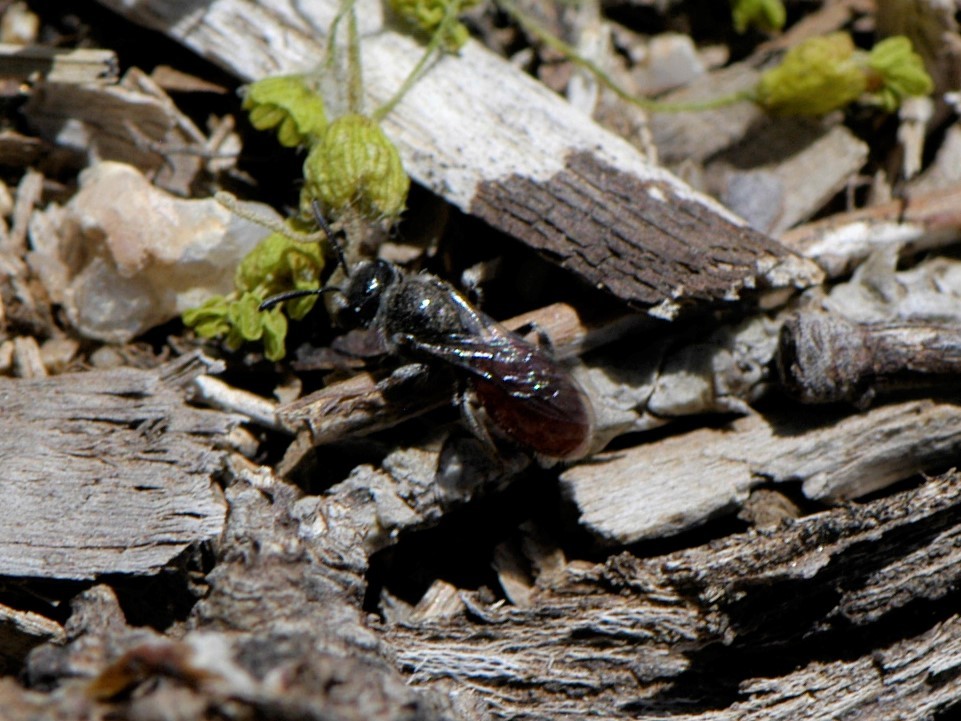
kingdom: Animalia
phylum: Arthropoda
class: Insecta
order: Hymenoptera
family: Halictidae
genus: Sphecodes
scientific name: Sphecodes
